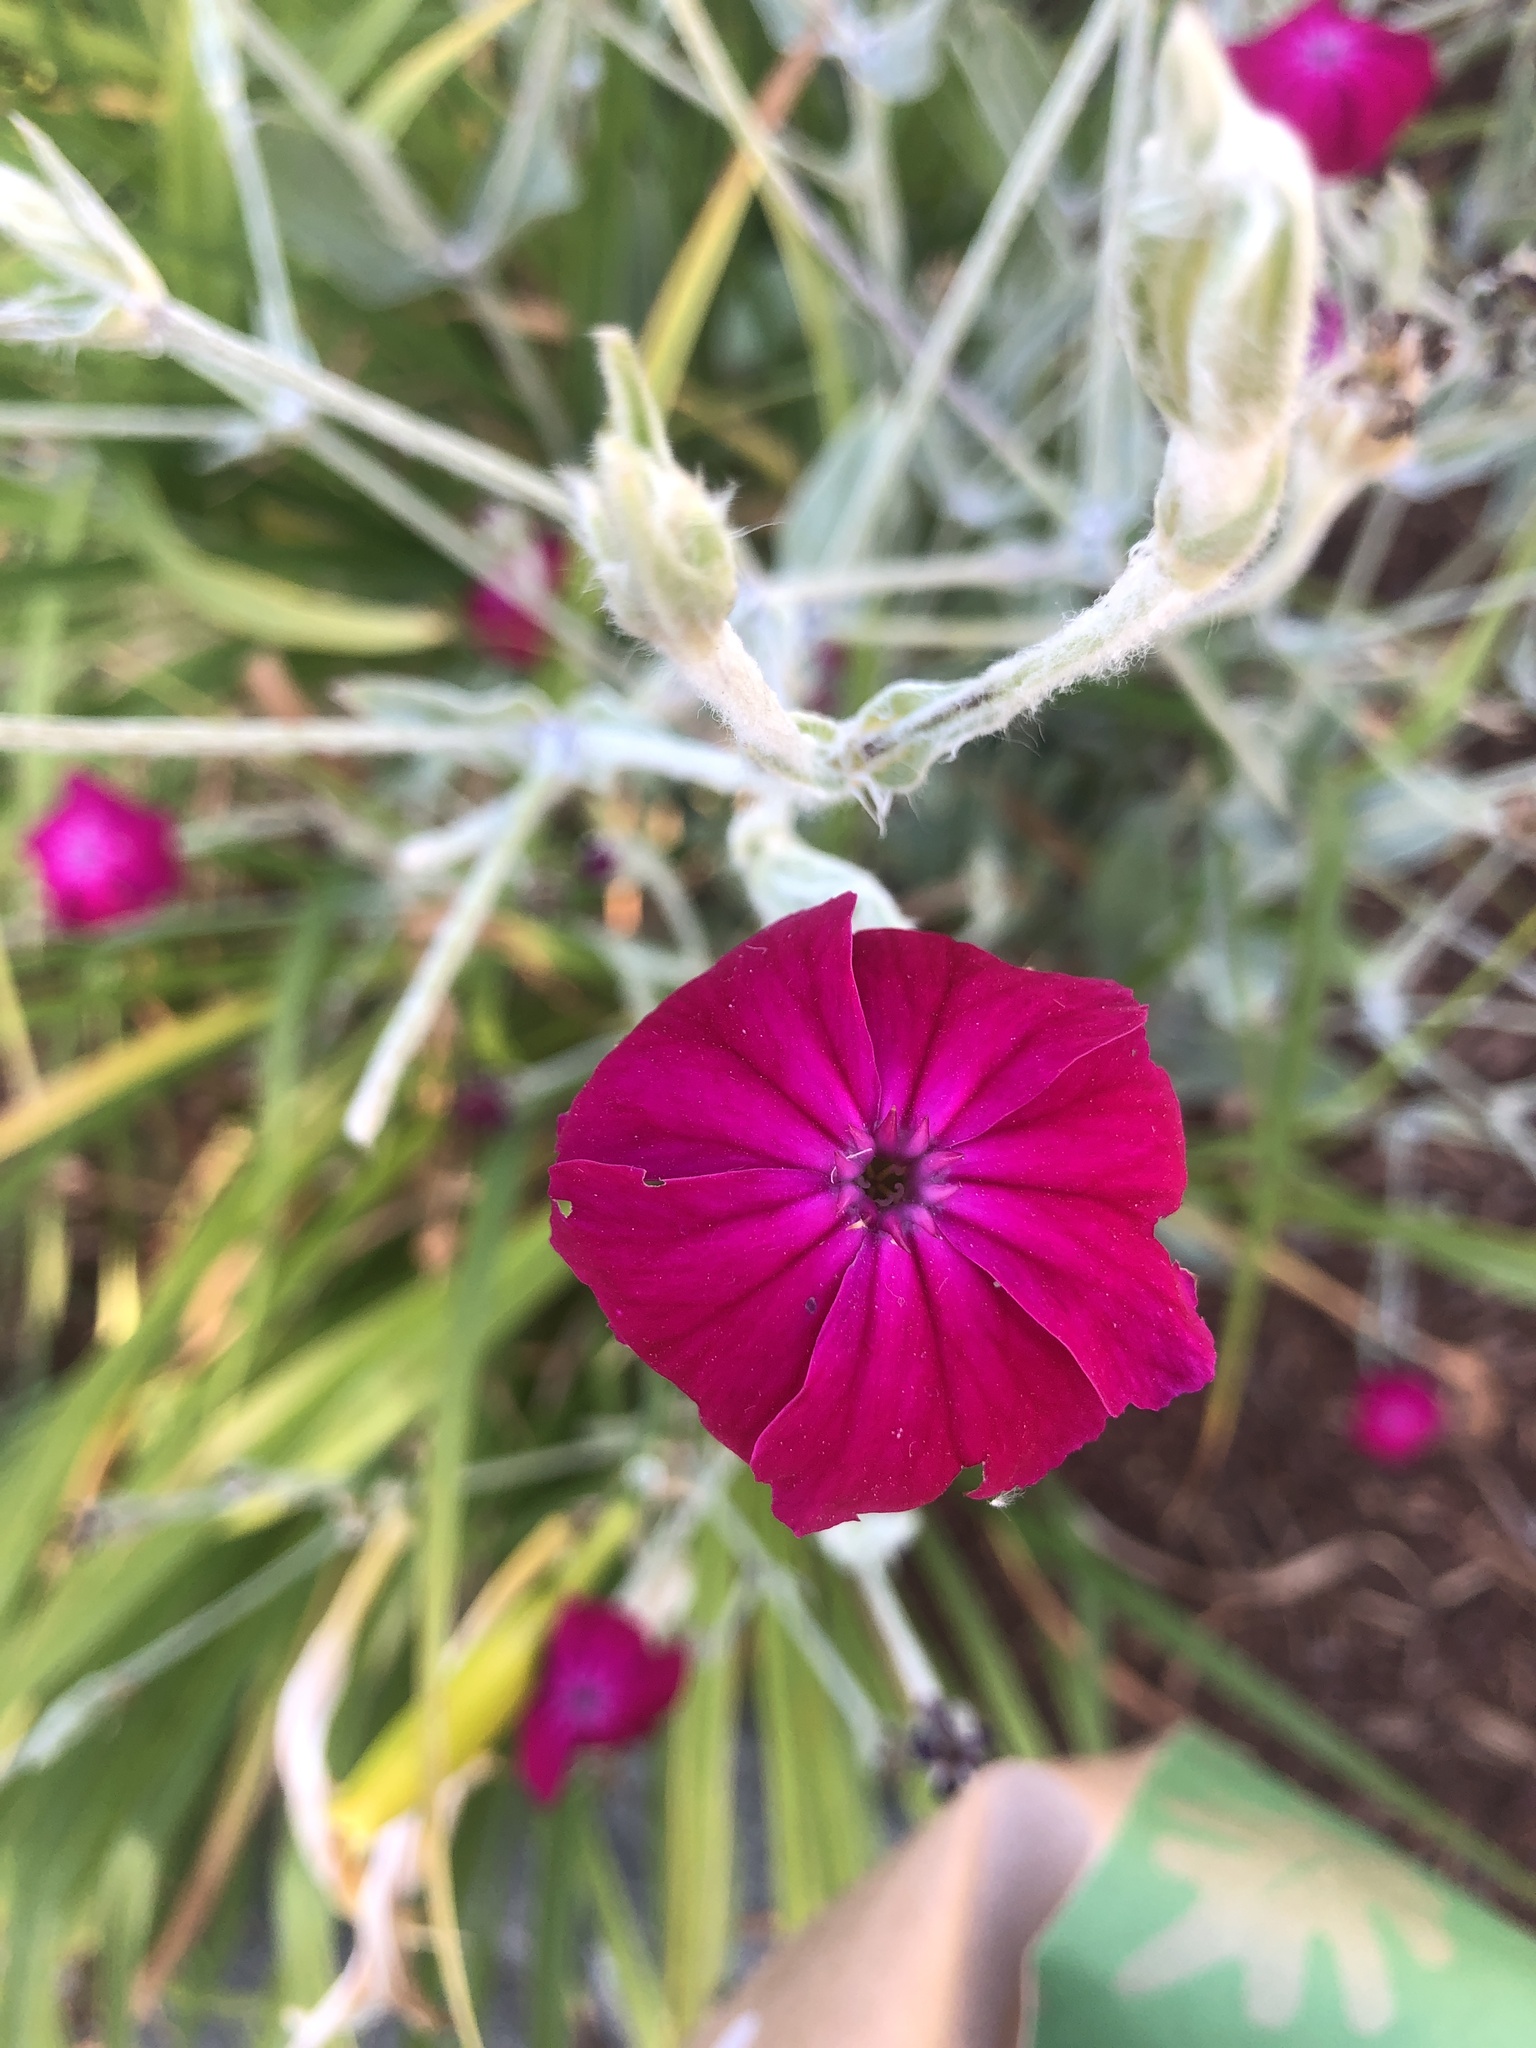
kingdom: Plantae
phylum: Tracheophyta
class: Magnoliopsida
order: Caryophyllales
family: Caryophyllaceae
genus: Silene
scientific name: Silene coronaria
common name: Rose campion
